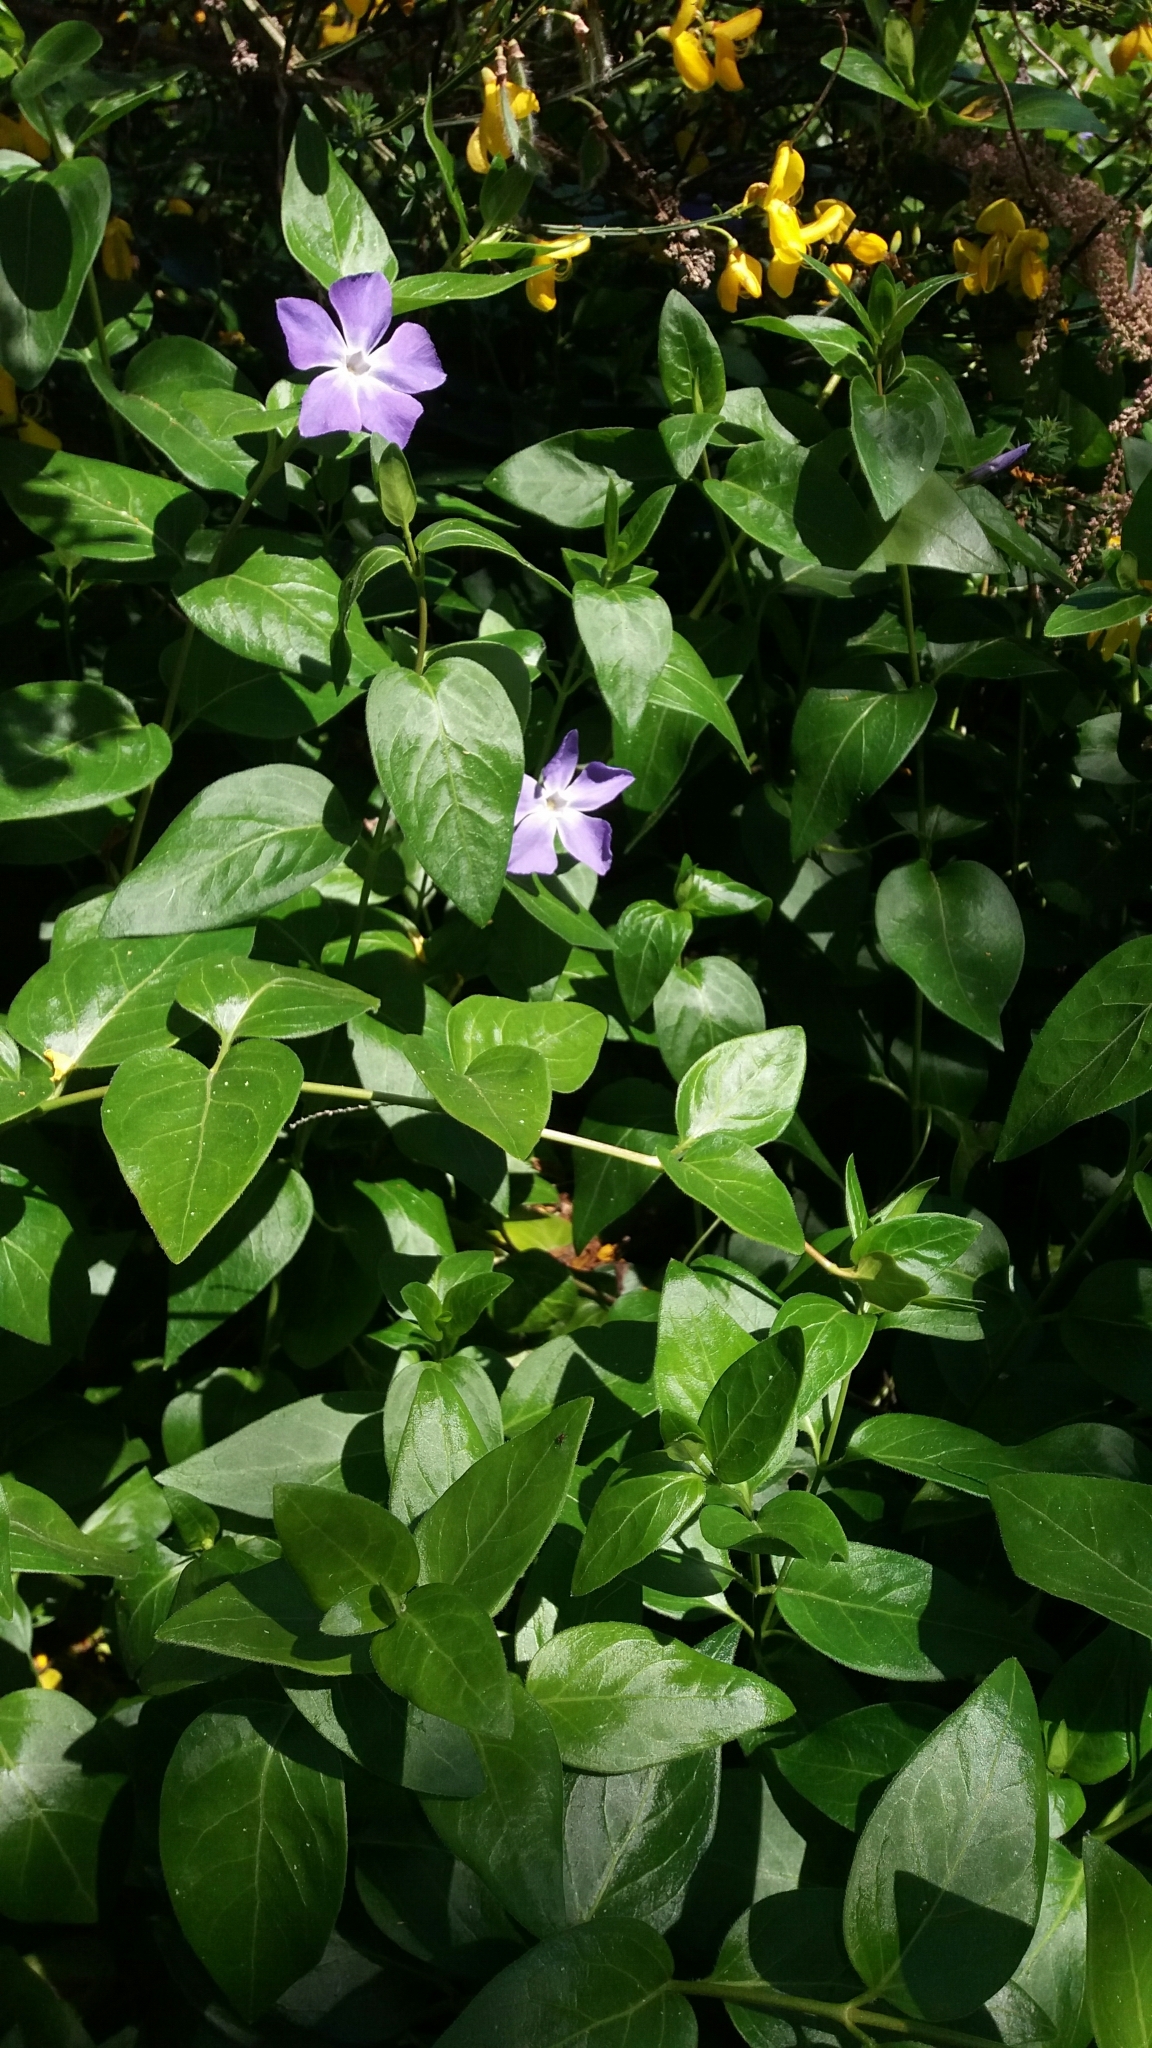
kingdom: Plantae
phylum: Tracheophyta
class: Magnoliopsida
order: Gentianales
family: Apocynaceae
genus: Vinca
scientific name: Vinca major
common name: Greater periwinkle
